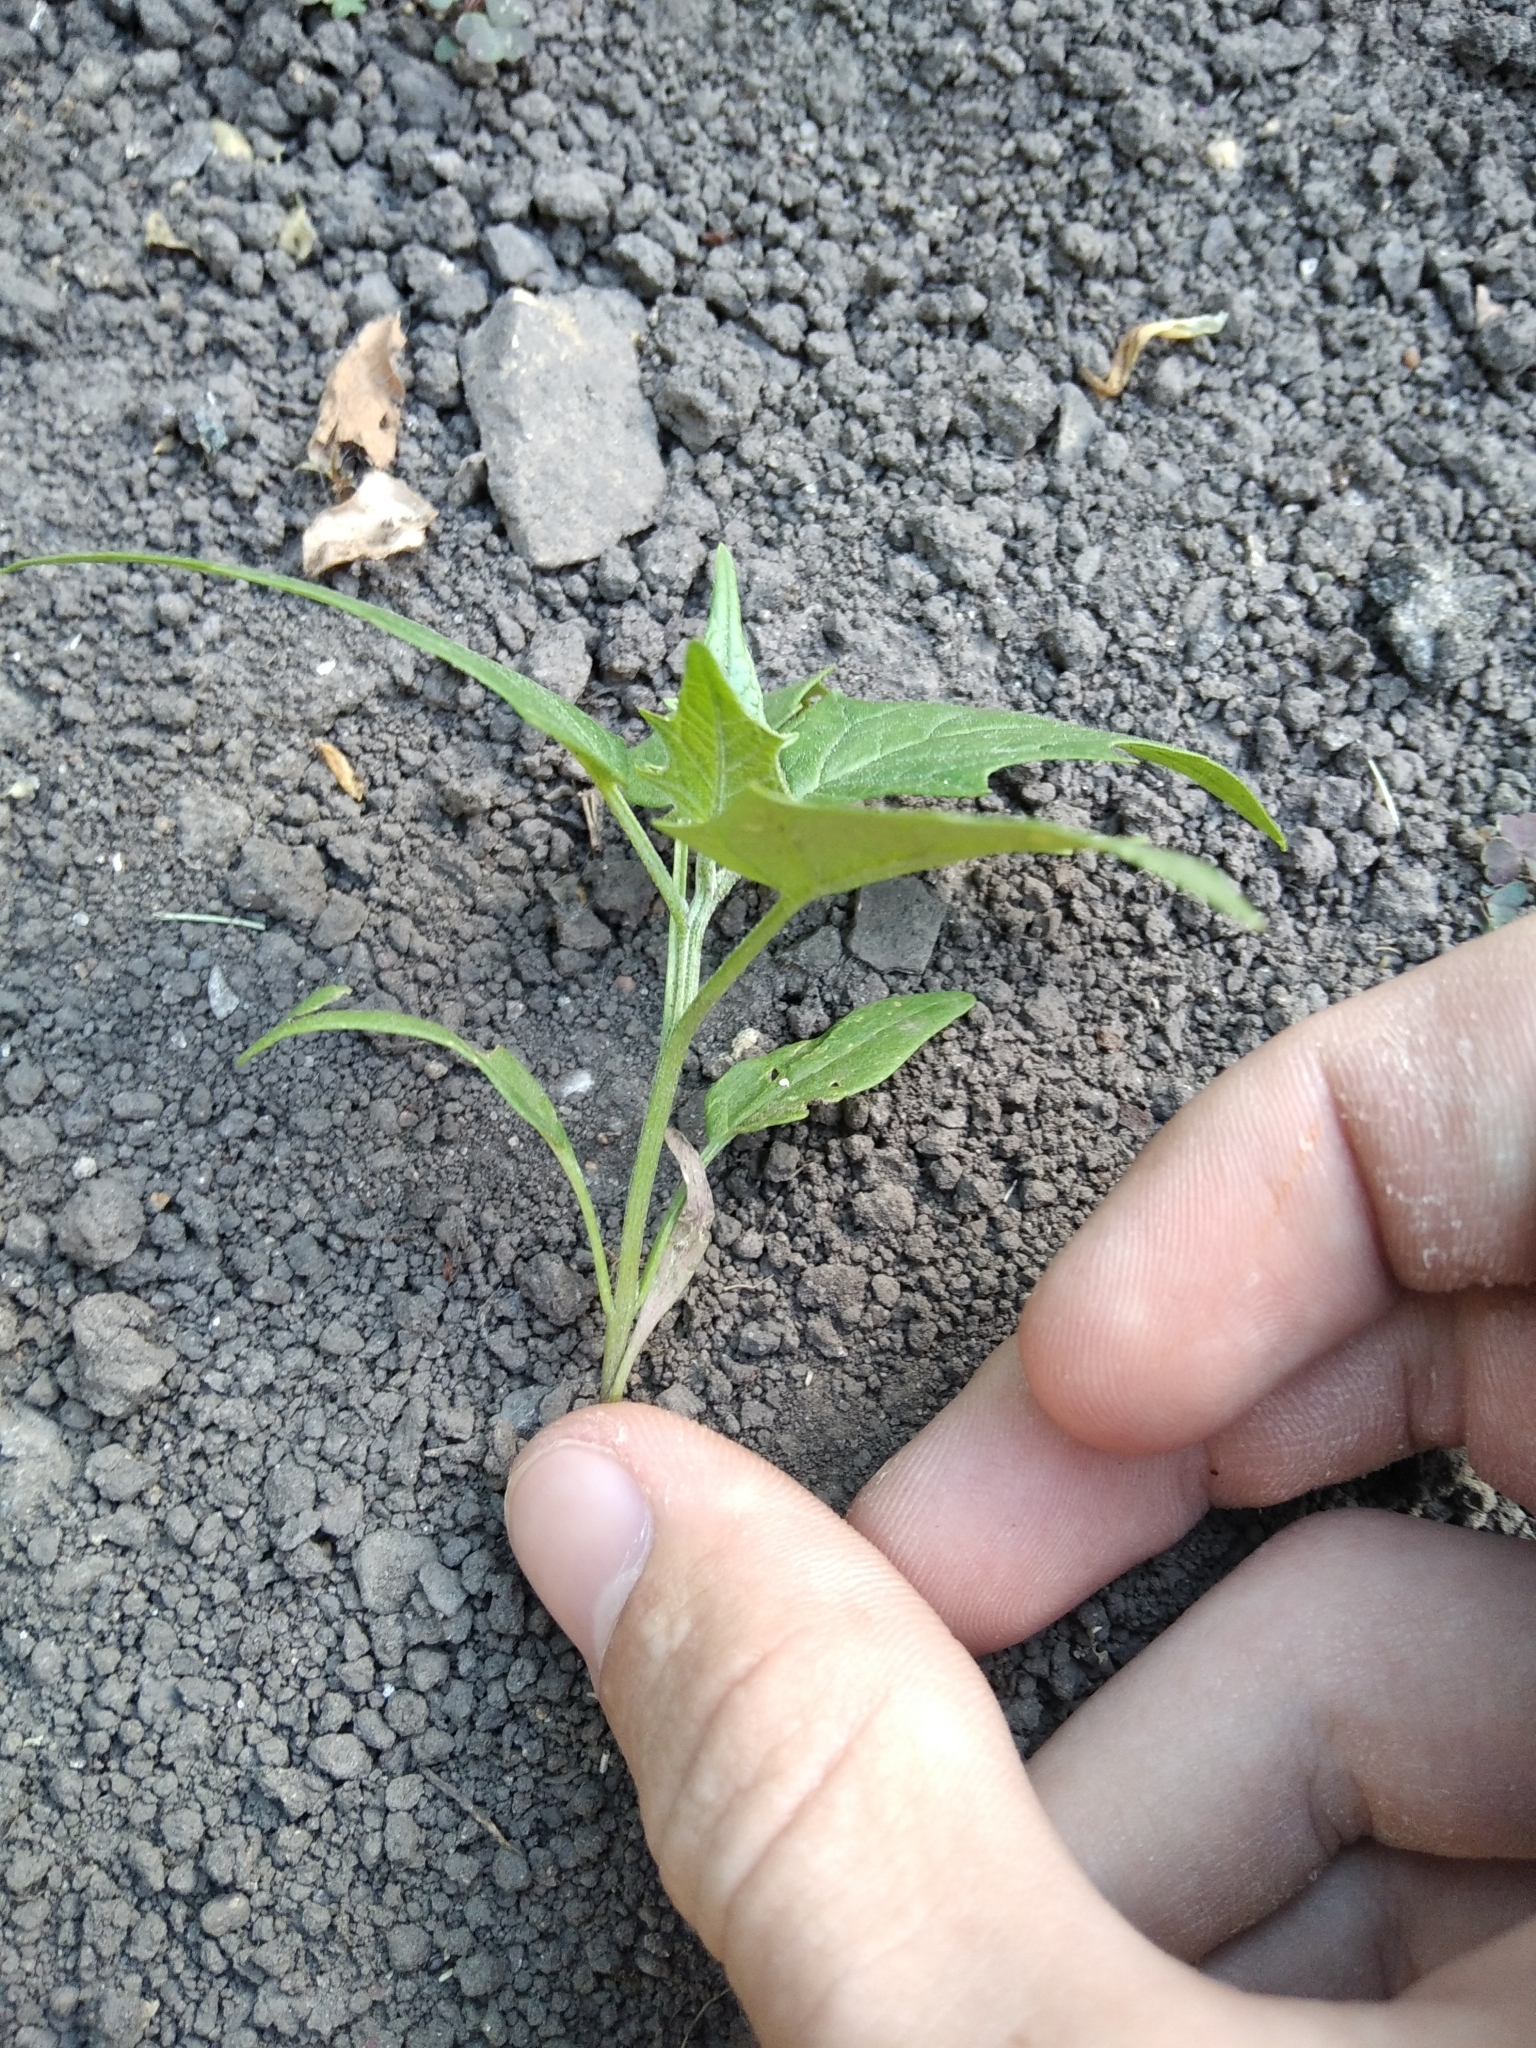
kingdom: Plantae
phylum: Tracheophyta
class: Magnoliopsida
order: Caryophyllales
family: Amaranthaceae
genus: Chenopodiastrum
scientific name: Chenopodiastrum hybridum
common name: Mapleleaf goosefoot
